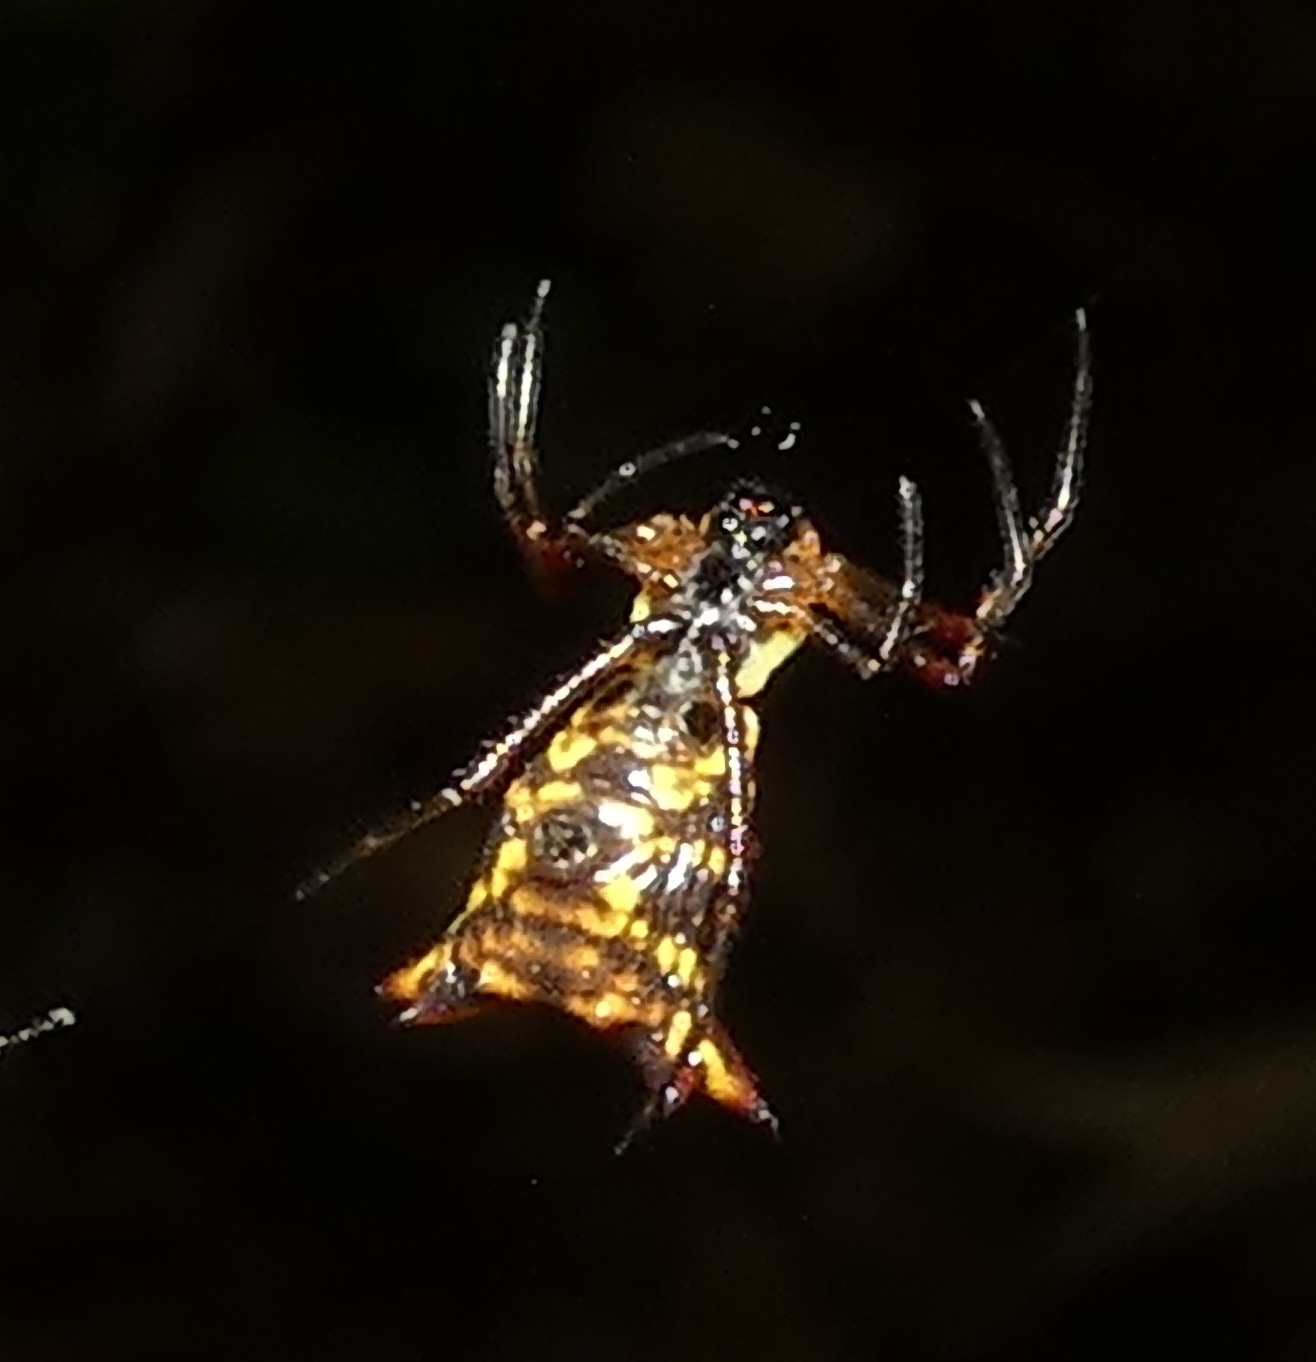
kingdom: Animalia
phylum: Arthropoda
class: Arachnida
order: Araneae
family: Araneidae
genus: Micrathena
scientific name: Micrathena fissispina
